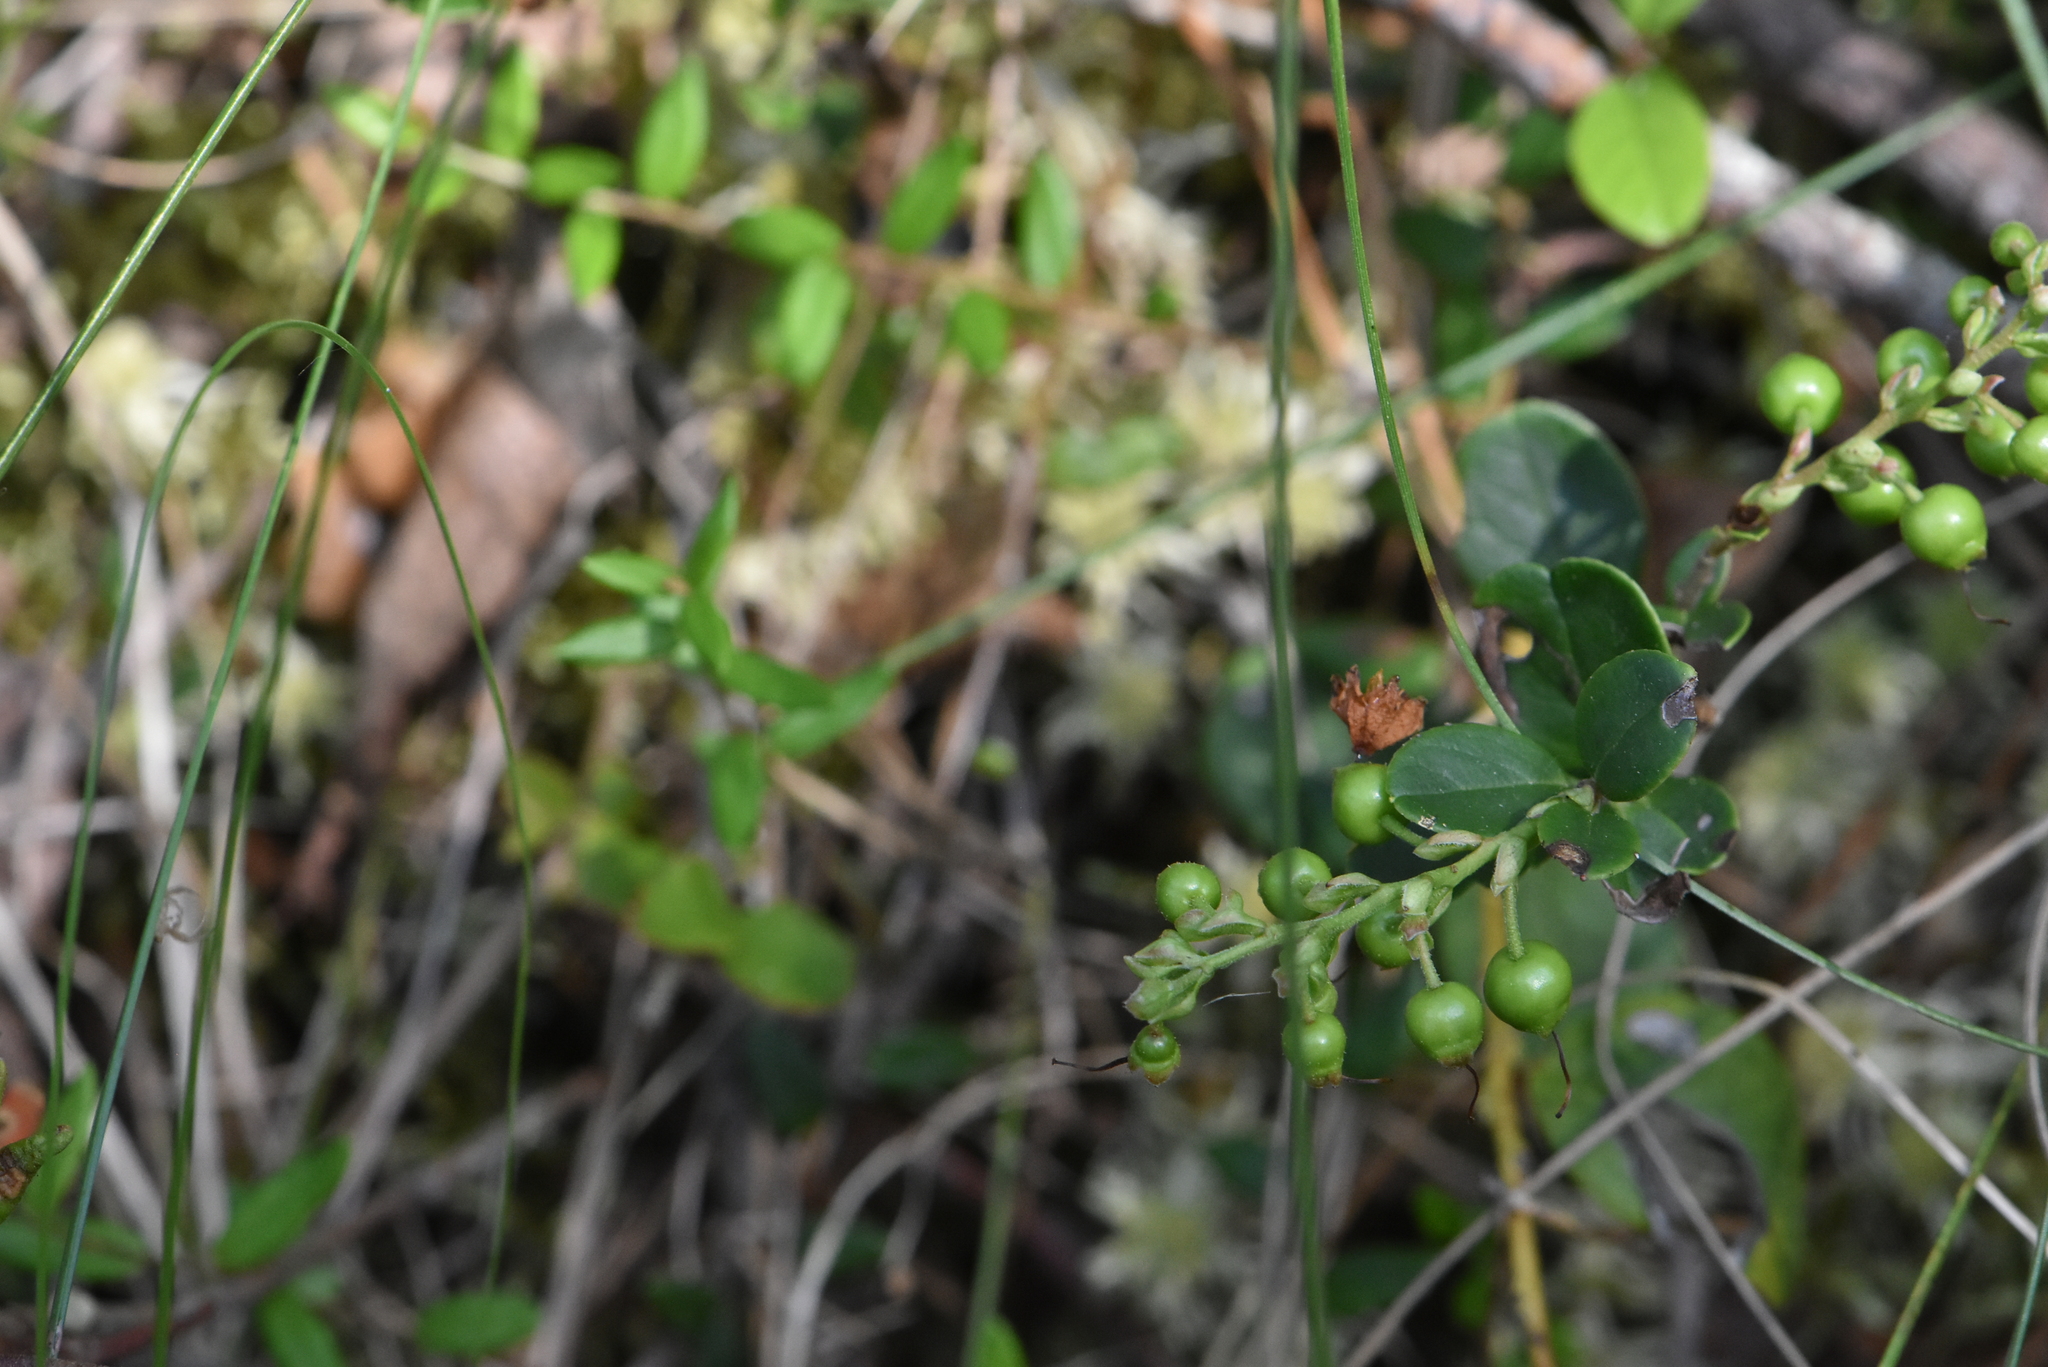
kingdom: Plantae
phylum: Tracheophyta
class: Magnoliopsida
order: Ericales
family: Ericaceae
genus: Vaccinium
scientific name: Vaccinium vitis-idaea
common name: Cowberry
